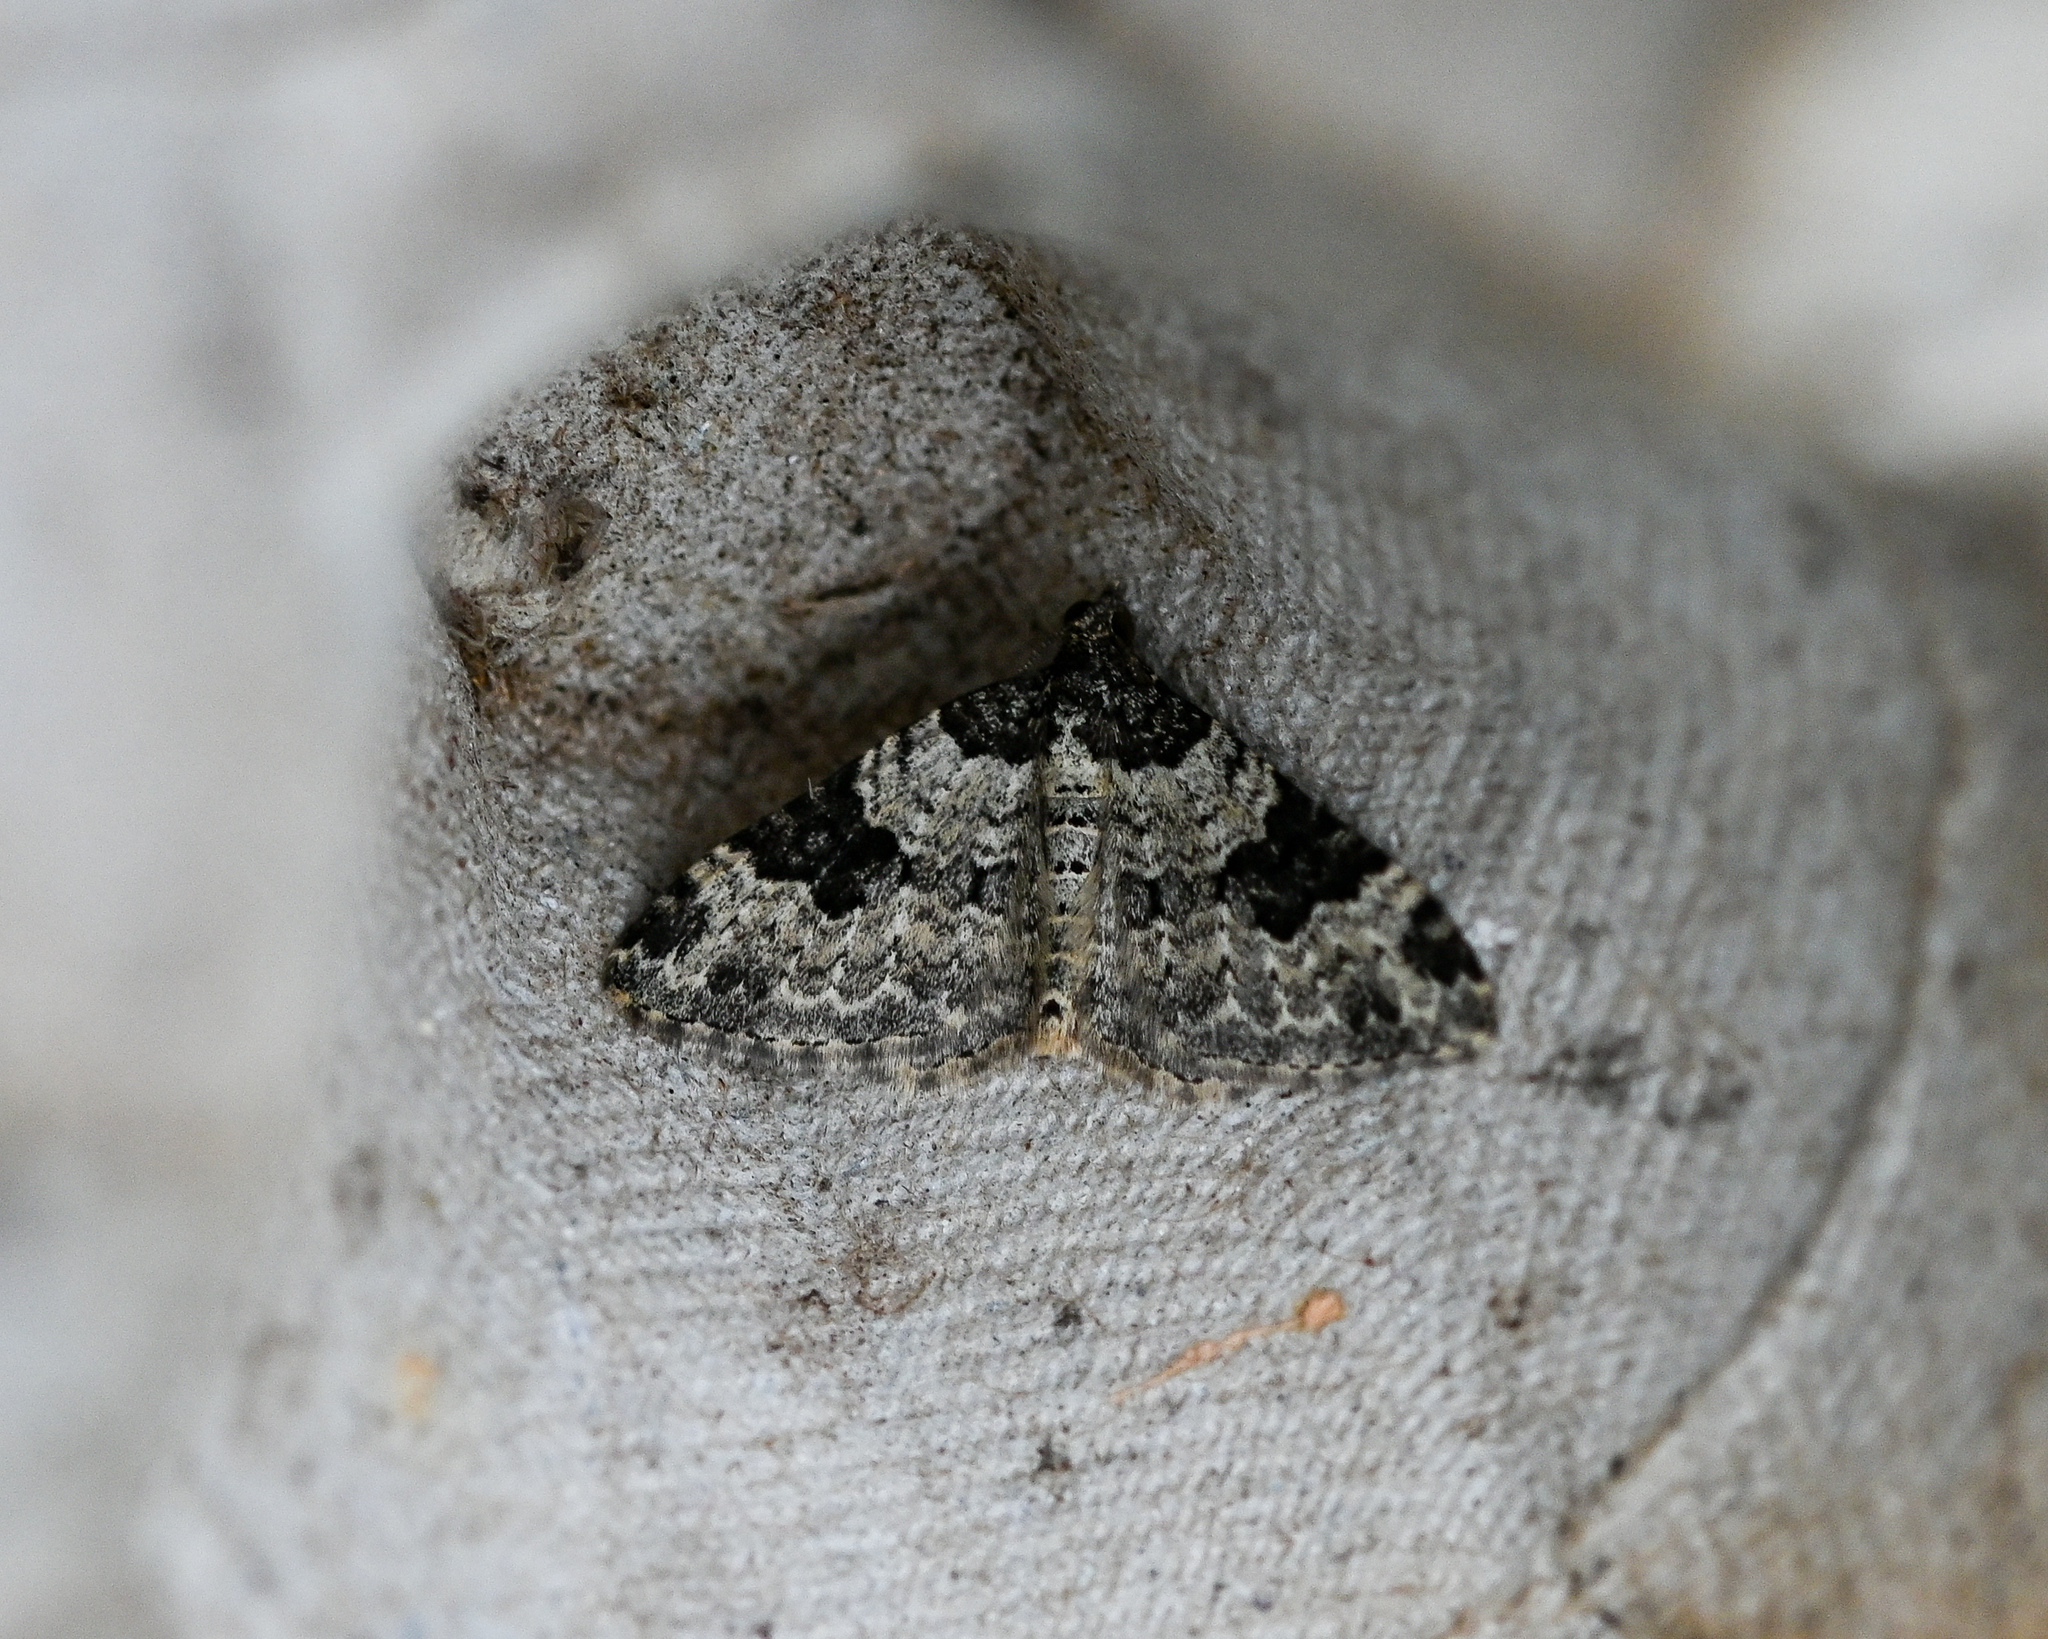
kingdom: Animalia
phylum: Arthropoda
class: Insecta
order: Lepidoptera
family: Geometridae
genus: Xanthorhoe
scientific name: Xanthorhoe fluctuata
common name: Garden carpet
